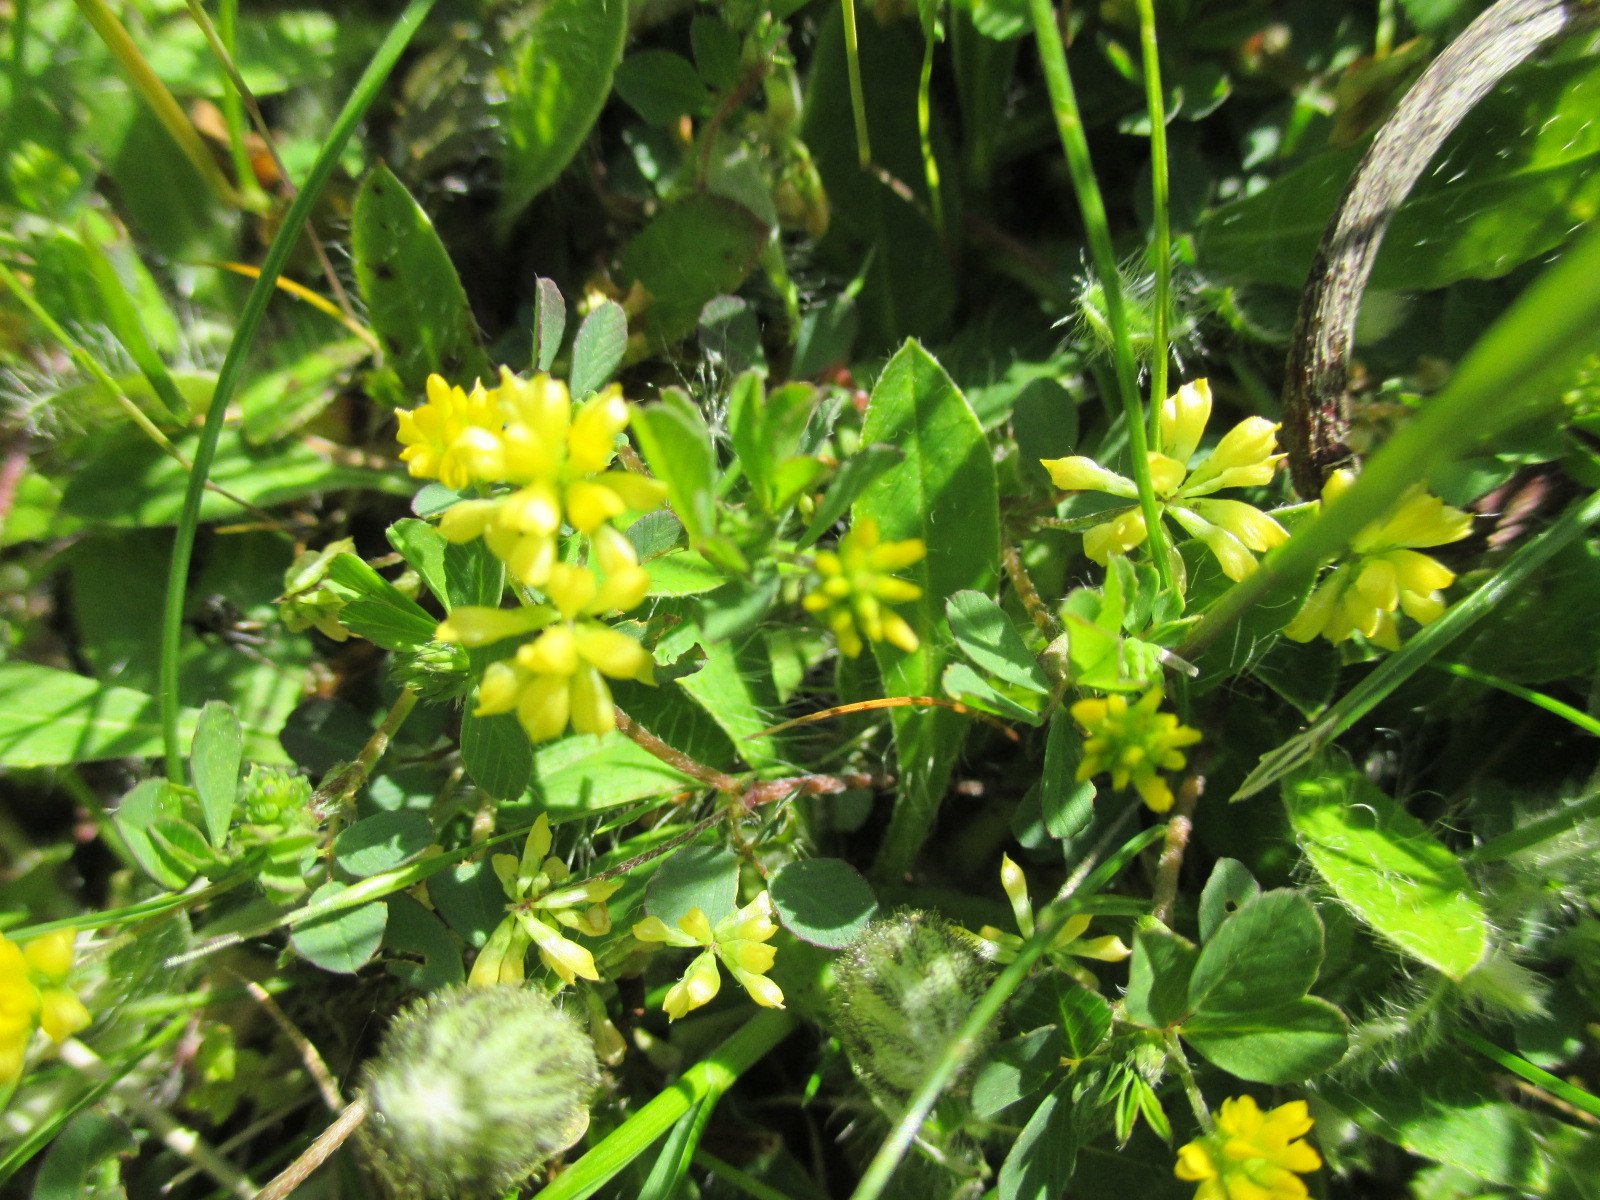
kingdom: Plantae
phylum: Tracheophyta
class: Magnoliopsida
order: Fabales
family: Fabaceae
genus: Trifolium
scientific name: Trifolium dubium
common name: Suckling clover
